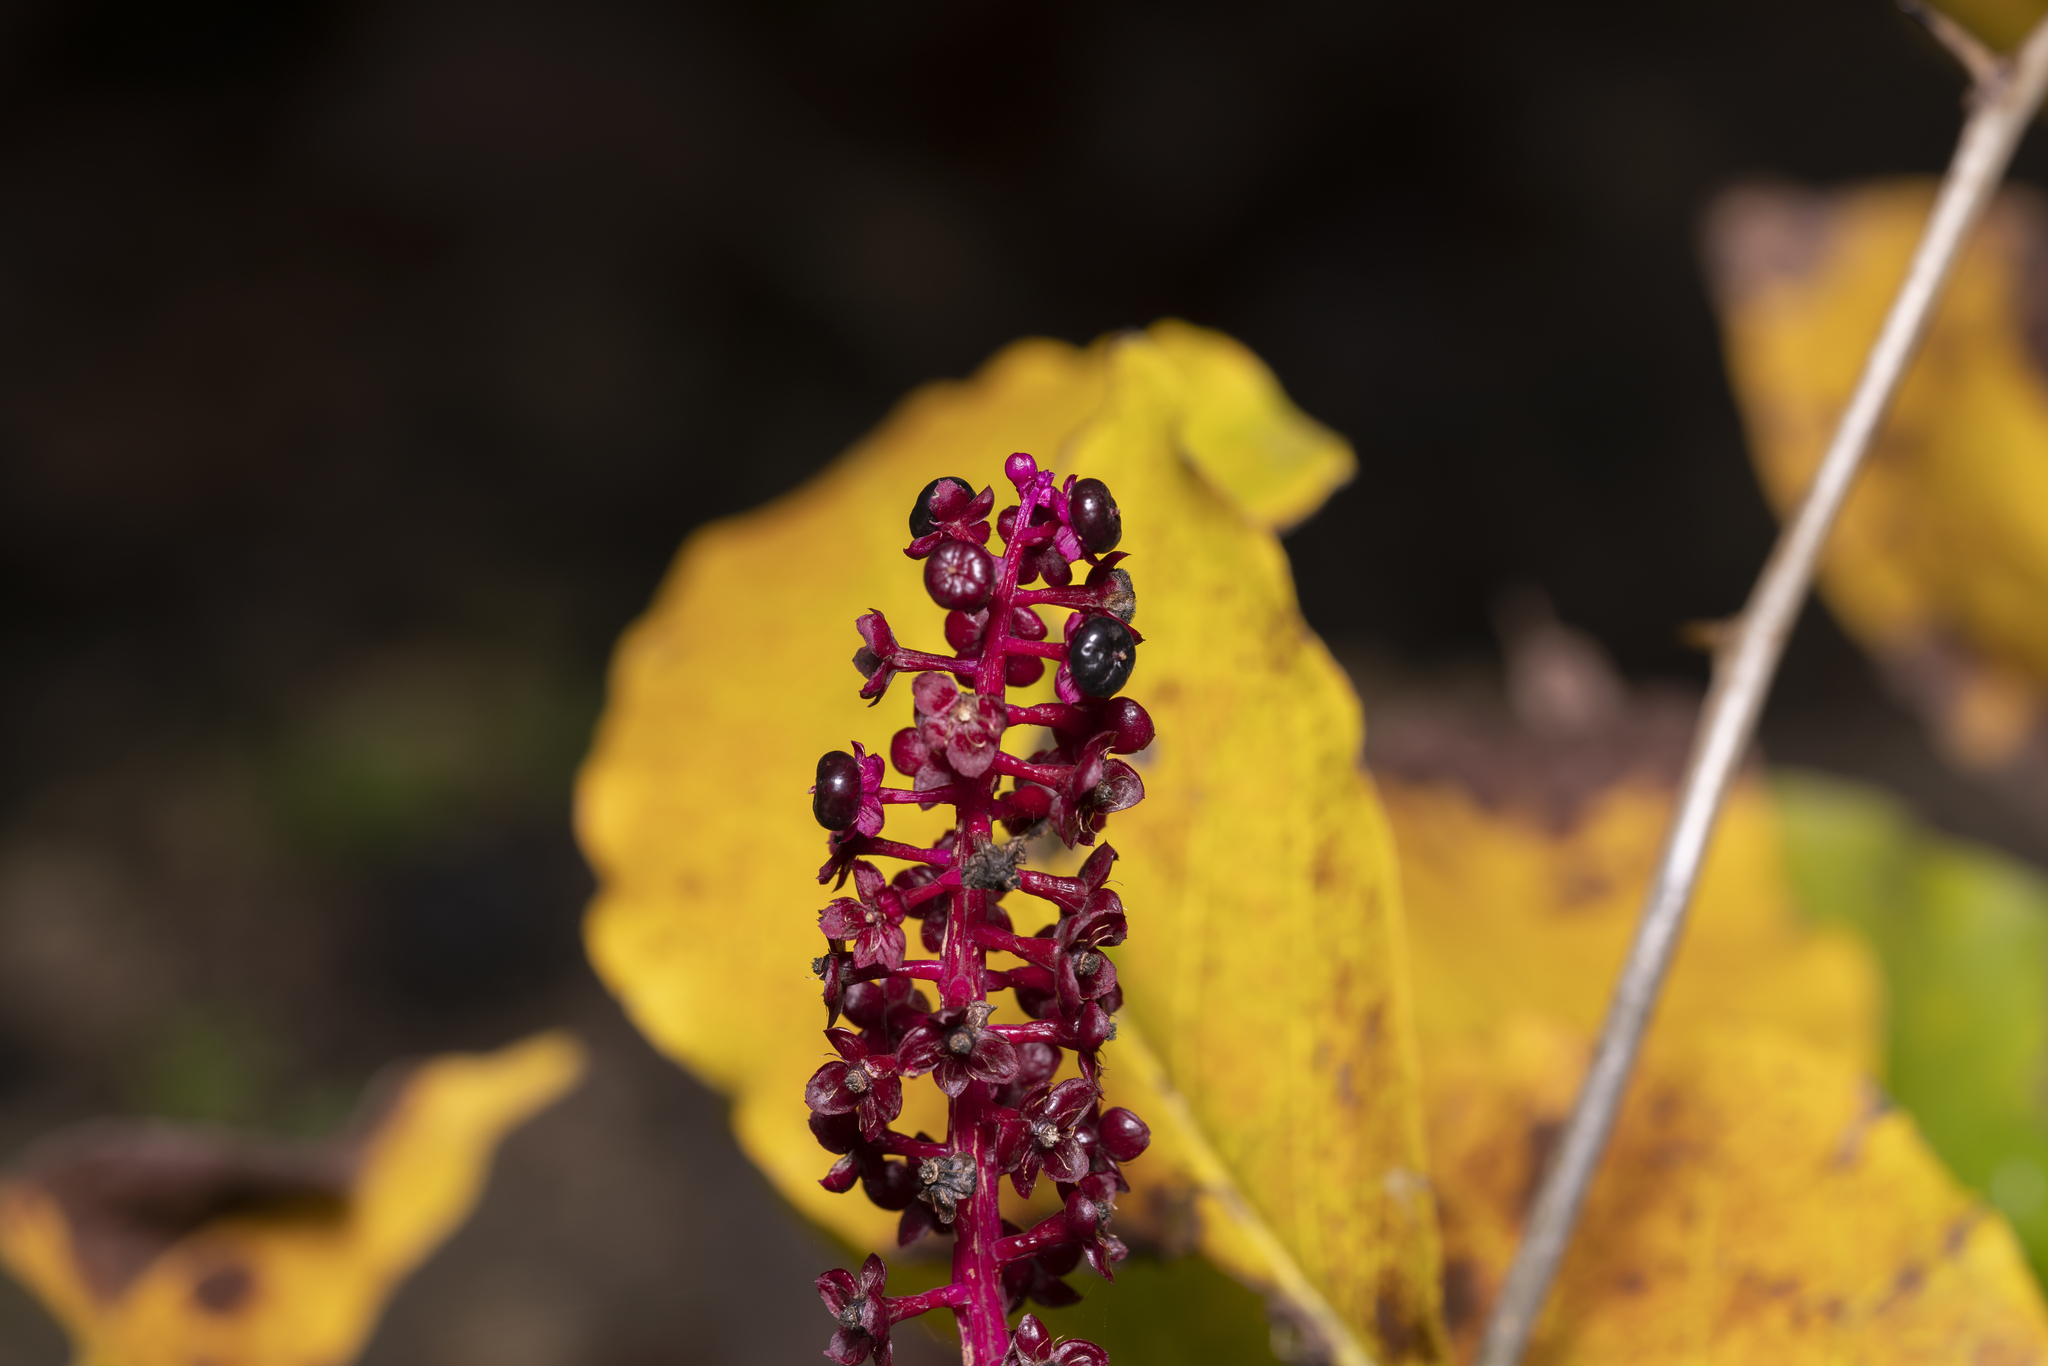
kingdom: Plantae
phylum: Tracheophyta
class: Magnoliopsida
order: Caryophyllales
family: Phytolaccaceae
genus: Phytolacca
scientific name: Phytolacca americana
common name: American pokeweed
